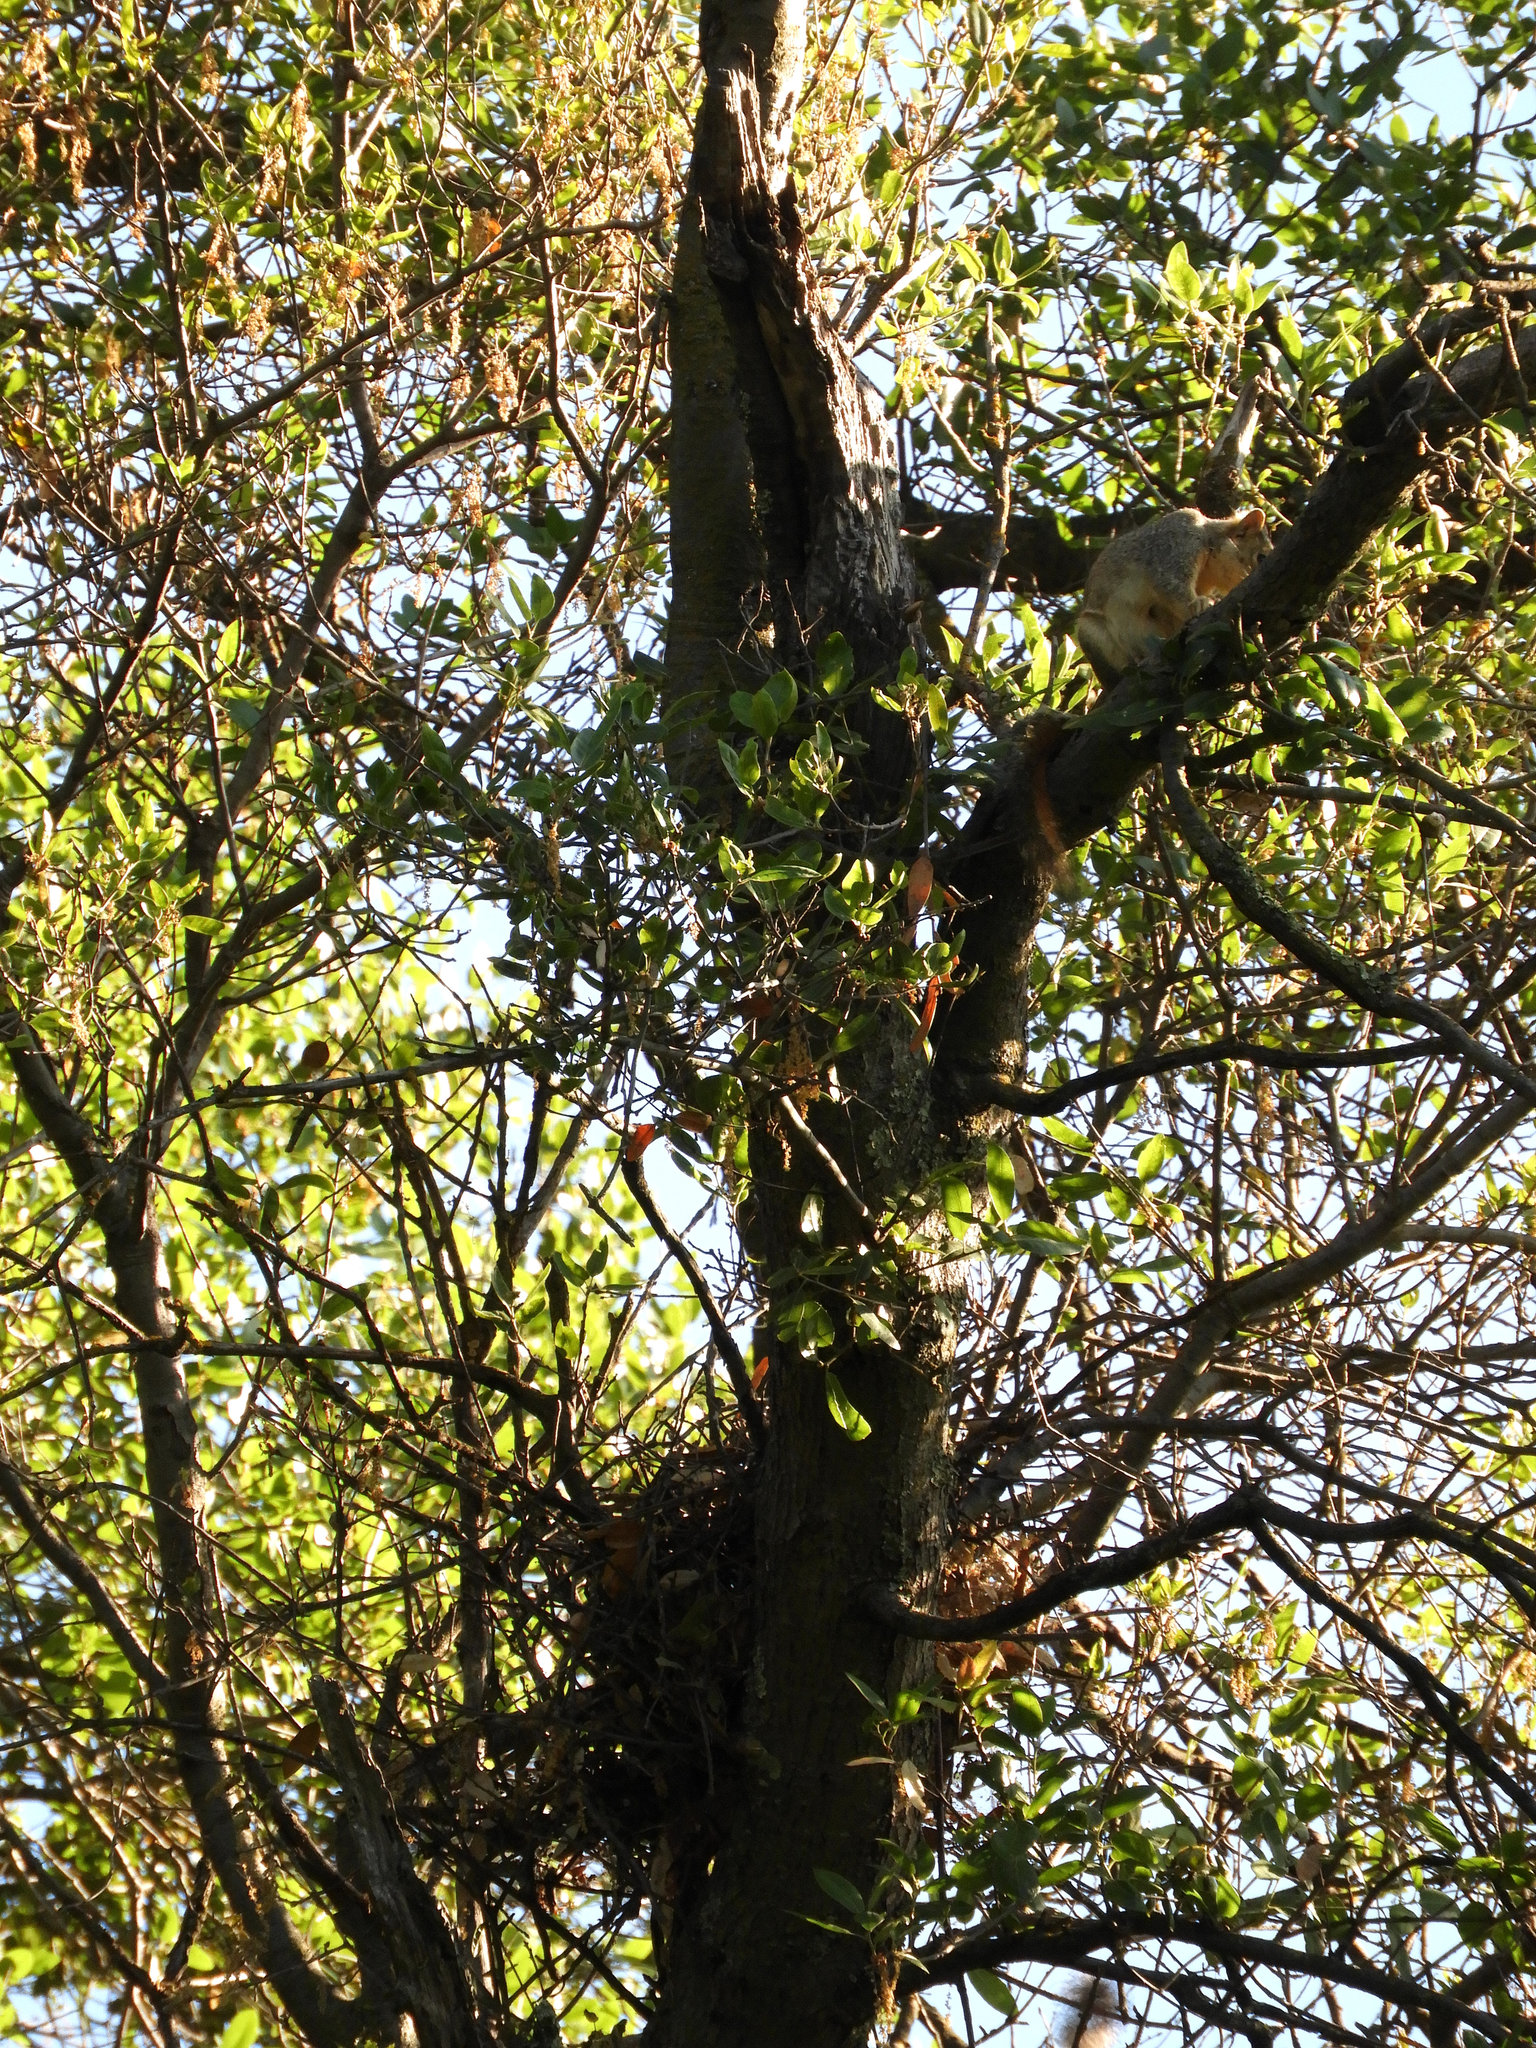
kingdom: Animalia
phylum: Chordata
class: Mammalia
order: Rodentia
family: Sciuridae
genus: Sciurus
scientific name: Sciurus niger
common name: Fox squirrel
